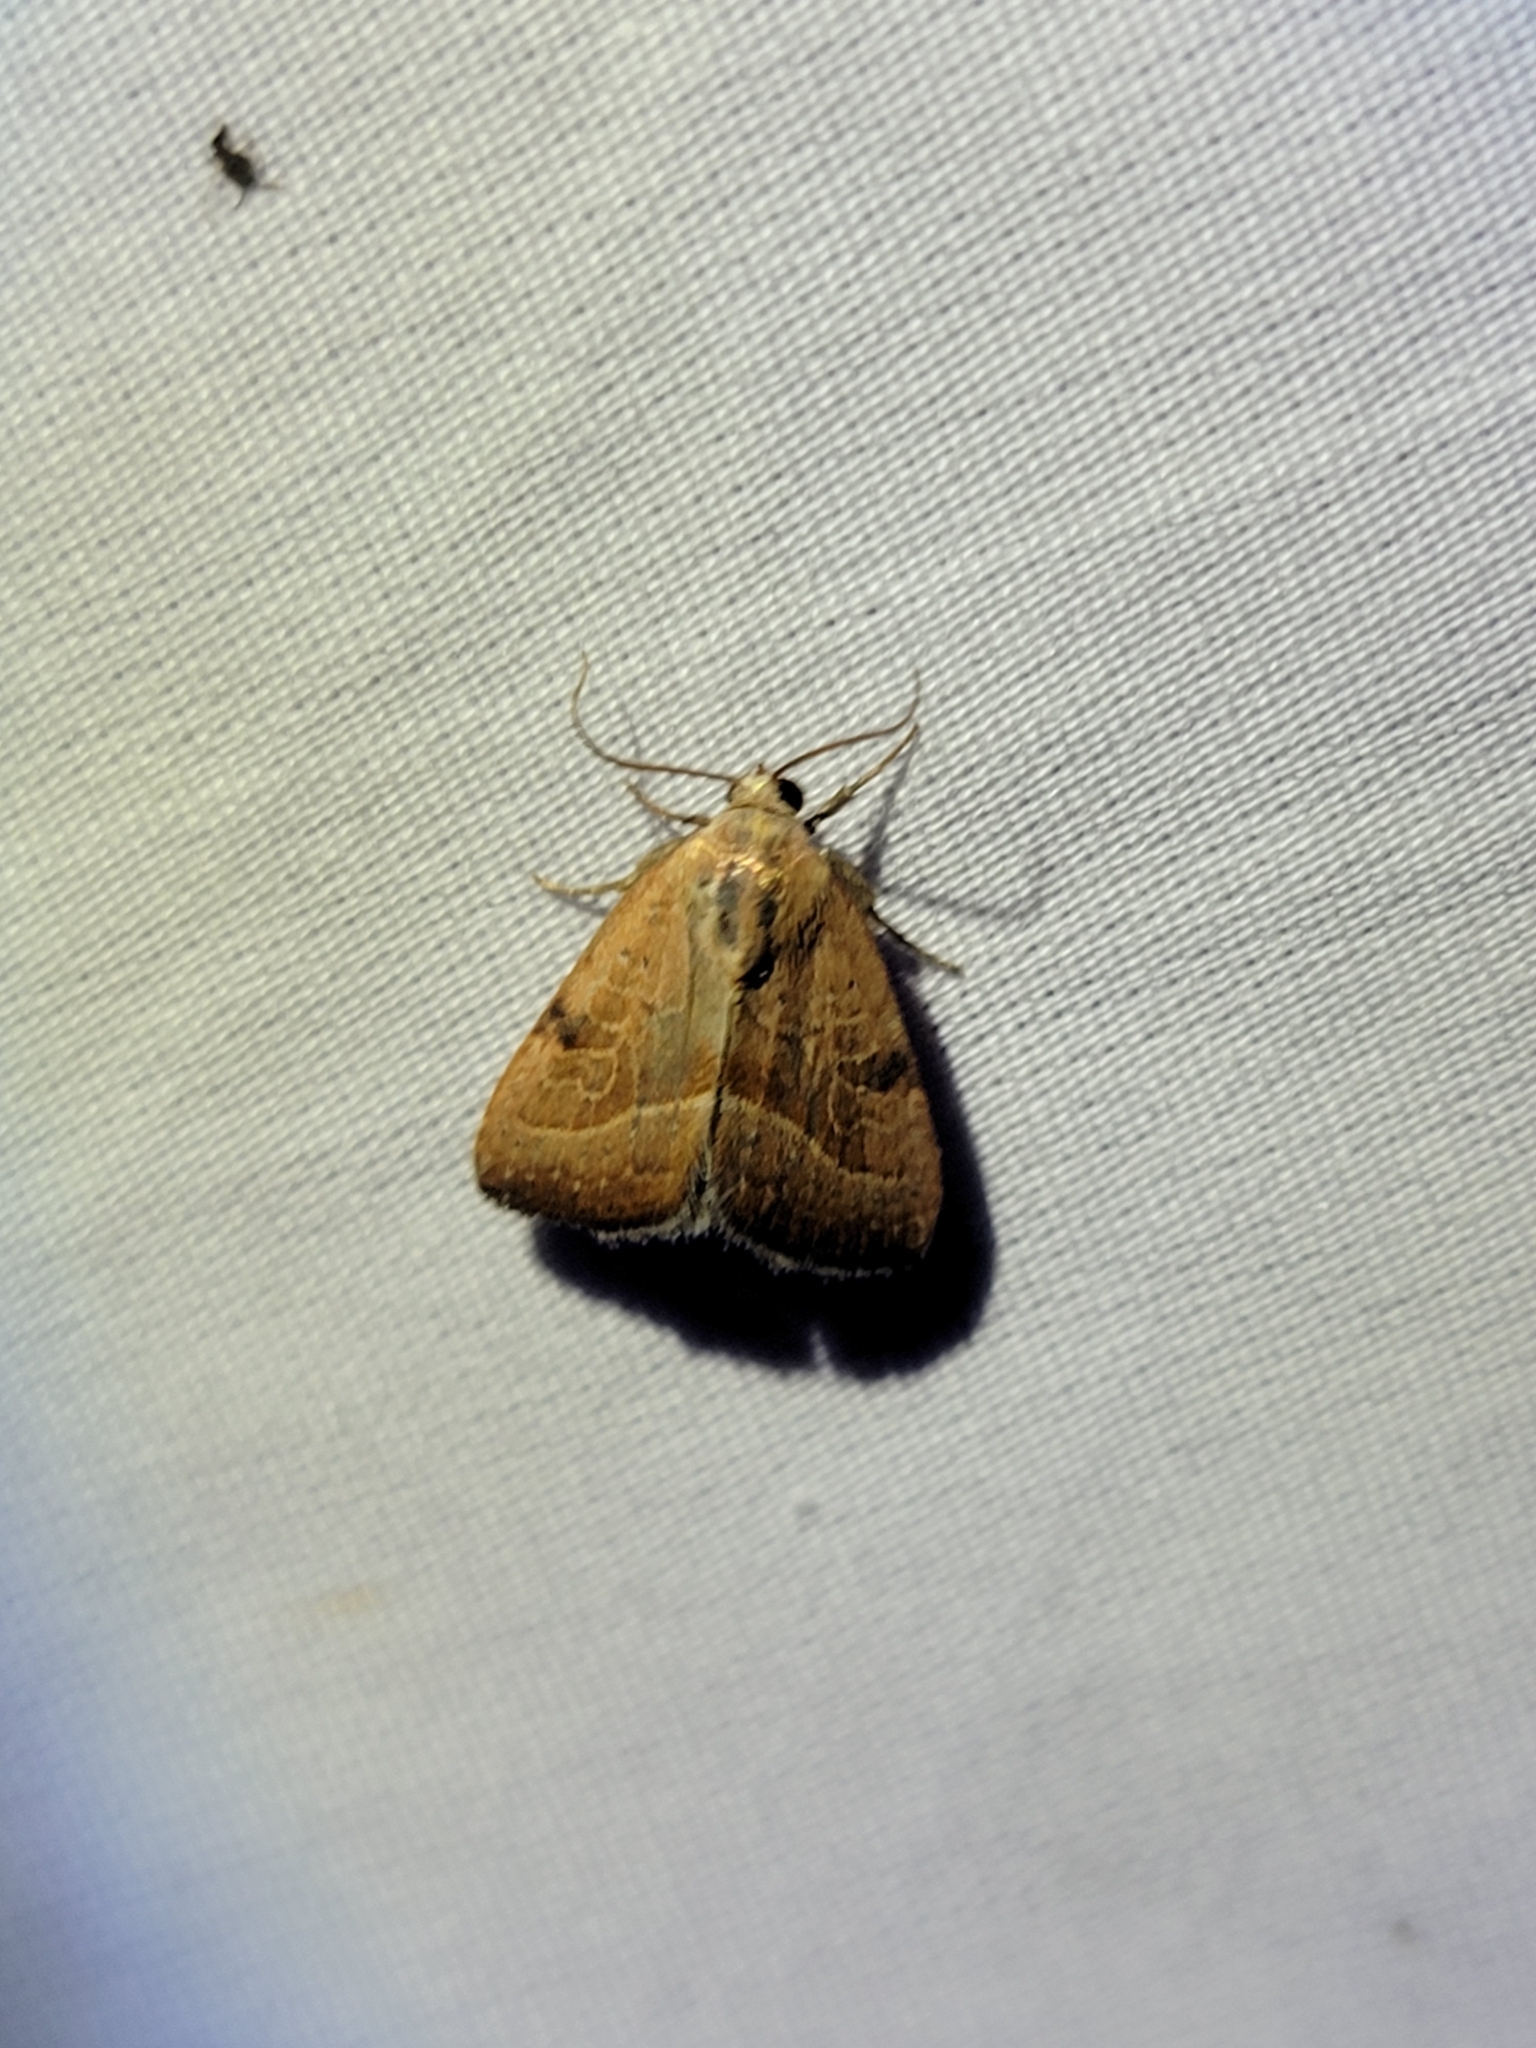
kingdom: Animalia
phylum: Arthropoda
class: Insecta
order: Lepidoptera
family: Noctuidae
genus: Galgula
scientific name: Galgula partita
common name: Wedgeling
